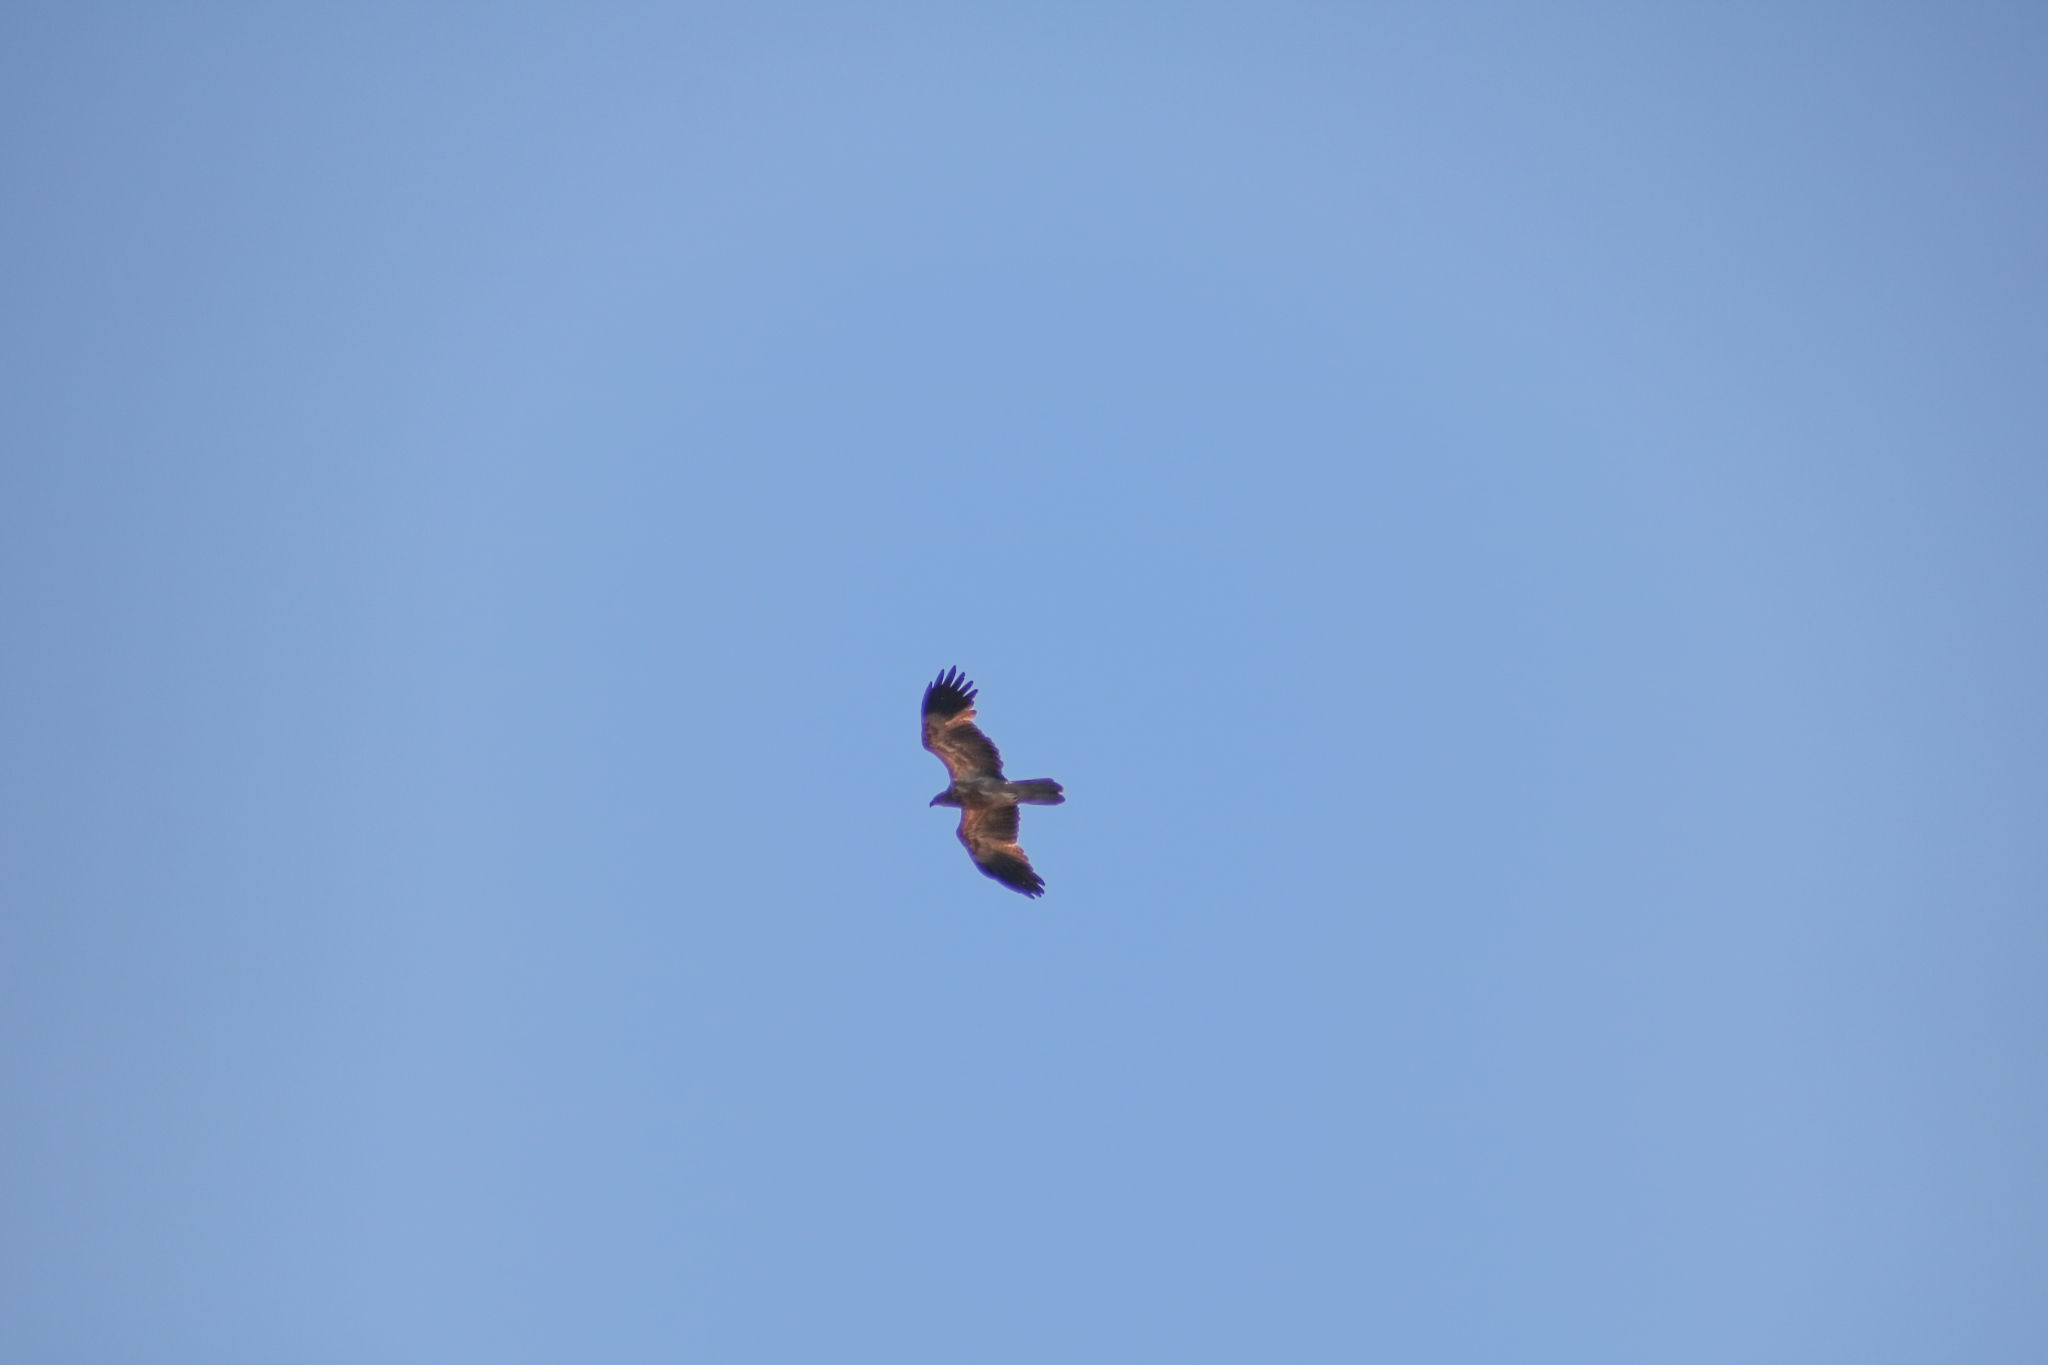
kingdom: Animalia
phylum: Chordata
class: Aves
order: Accipitriformes
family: Accipitridae
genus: Haliastur
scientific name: Haliastur sphenurus
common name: Whistling kite
